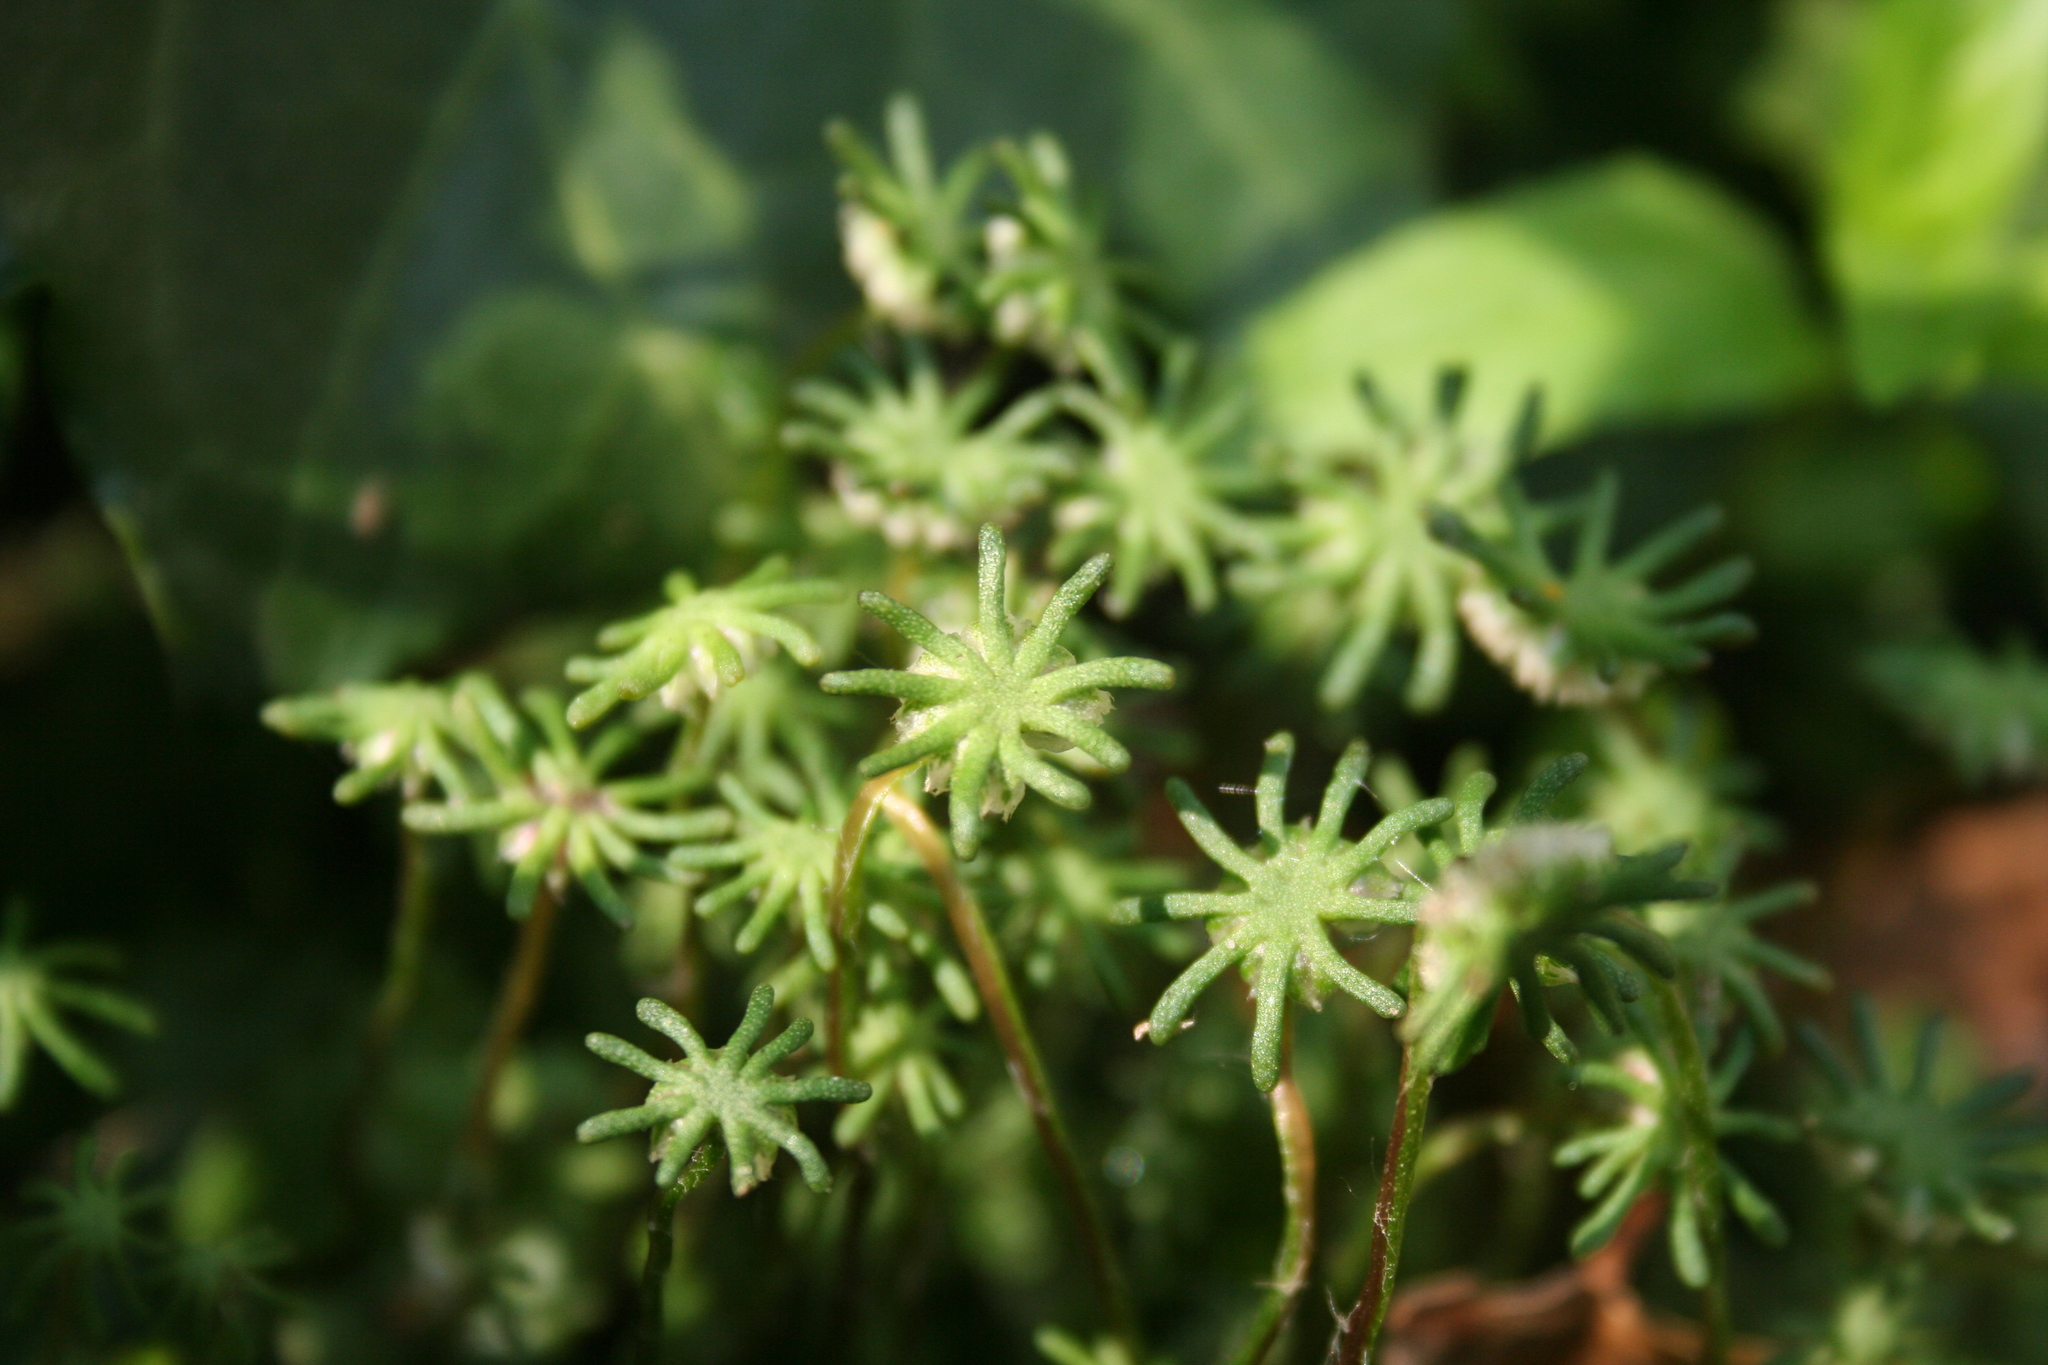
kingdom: Plantae
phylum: Marchantiophyta
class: Marchantiopsida
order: Marchantiales
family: Marchantiaceae
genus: Marchantia
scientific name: Marchantia polymorpha
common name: Common liverwort
